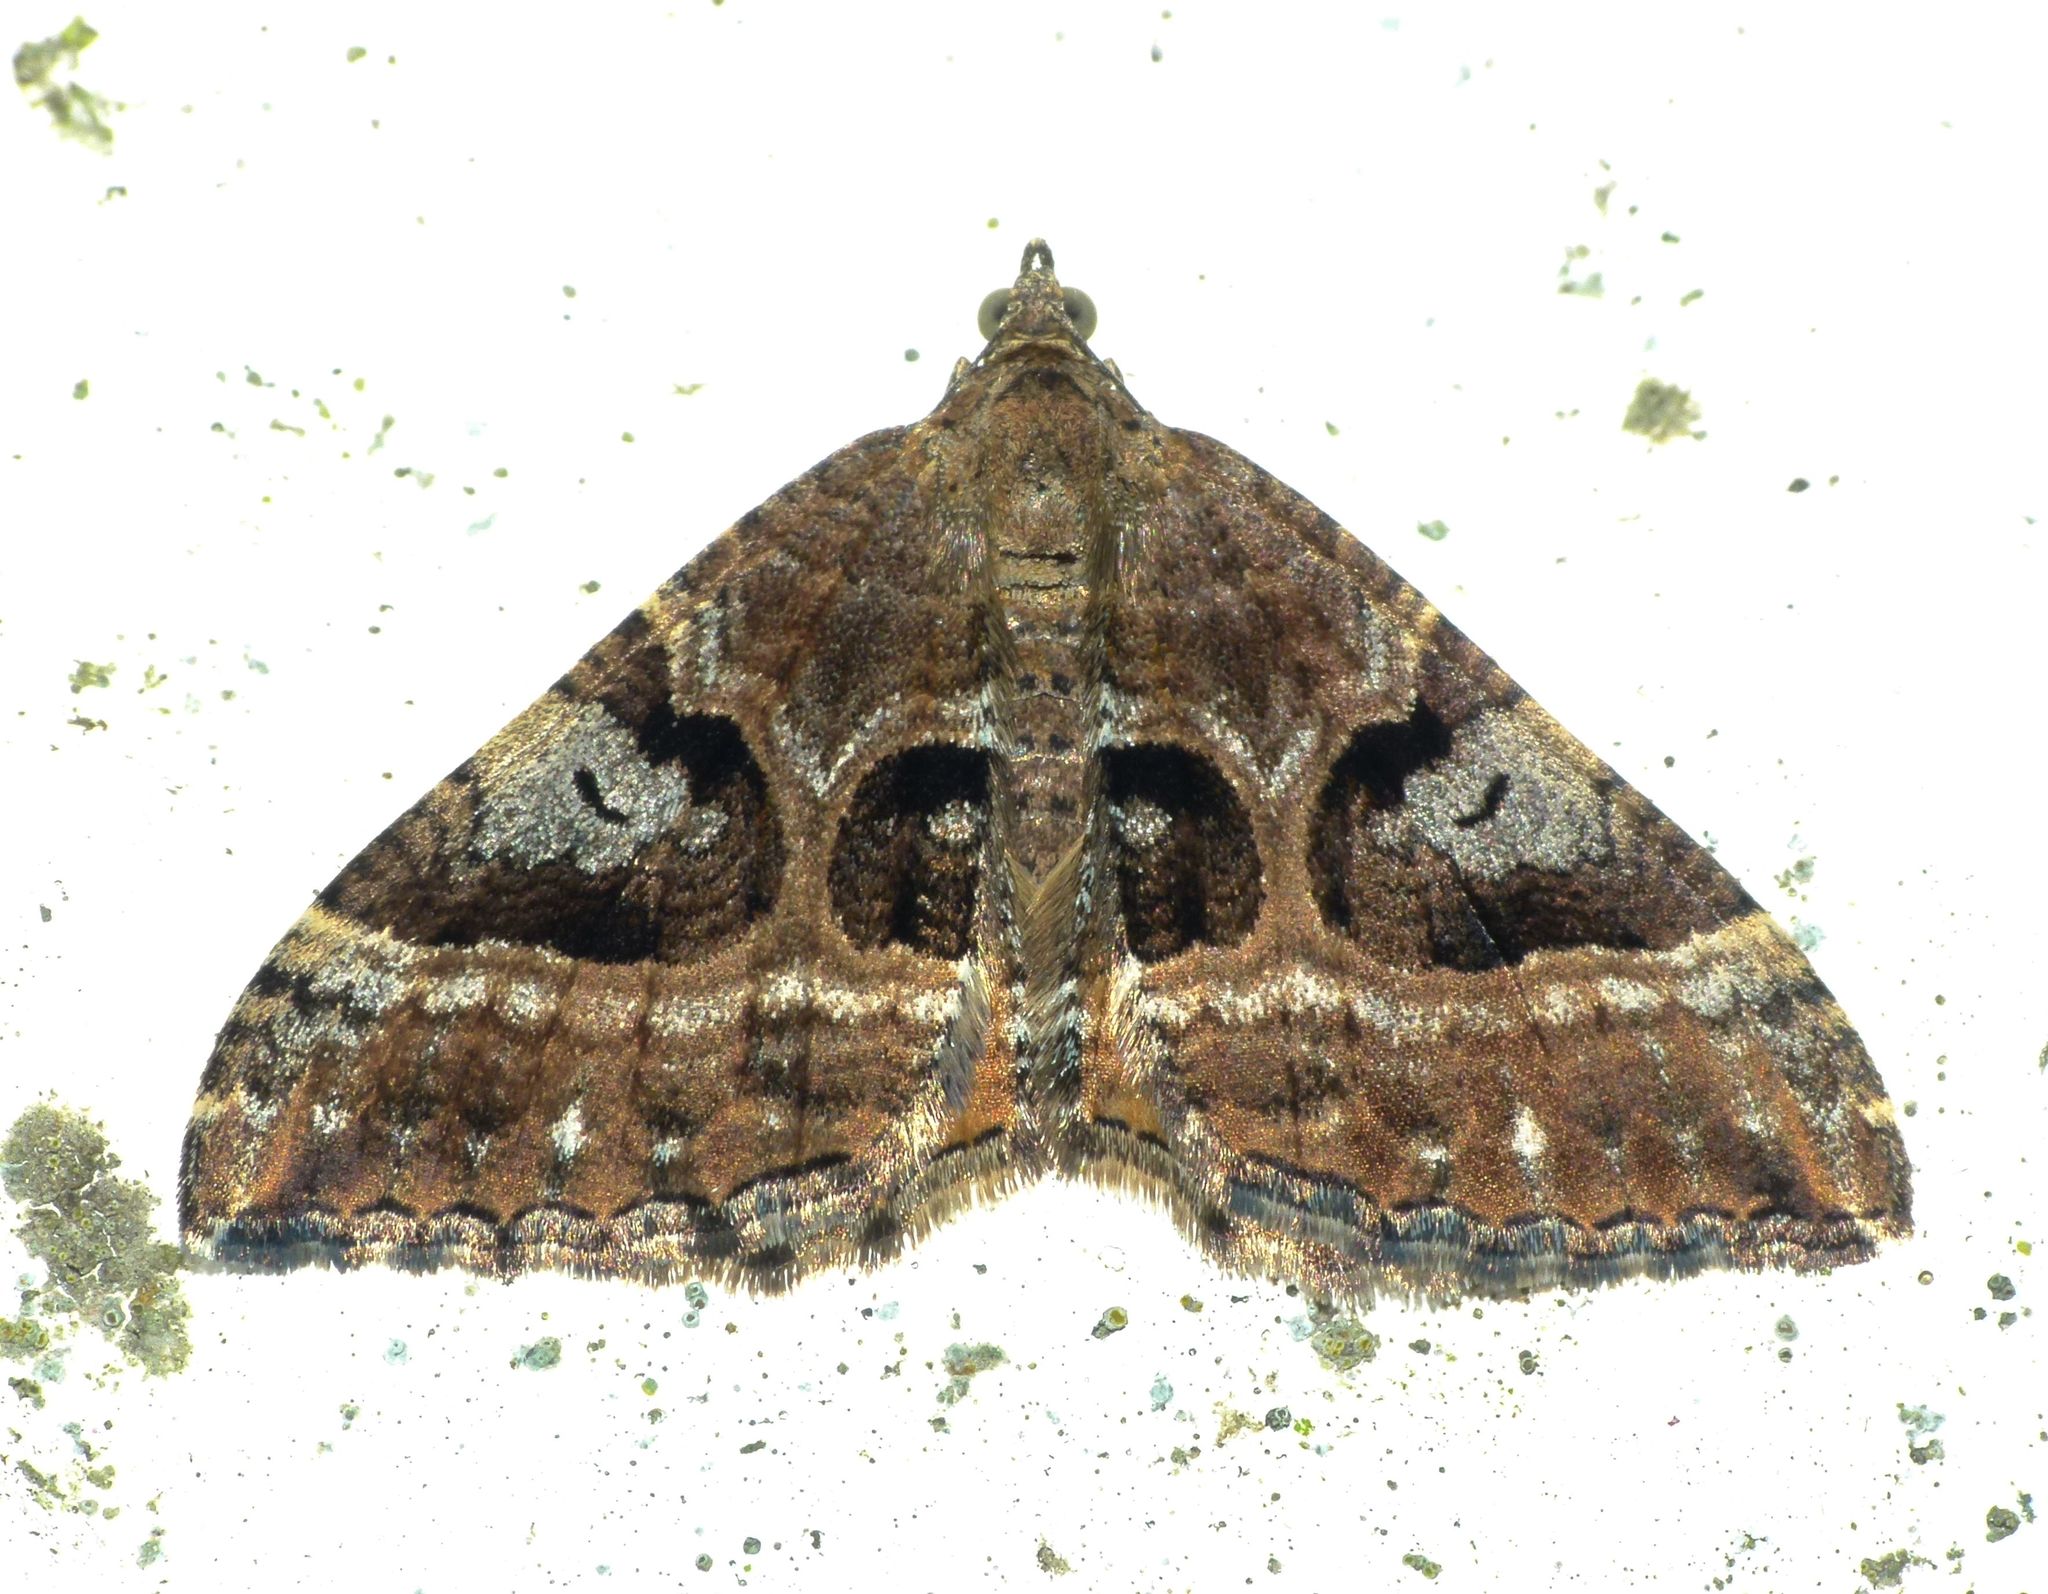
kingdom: Animalia
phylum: Arthropoda
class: Insecta
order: Lepidoptera
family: Geometridae
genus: Hydriomena
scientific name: Hydriomena deltoidata
